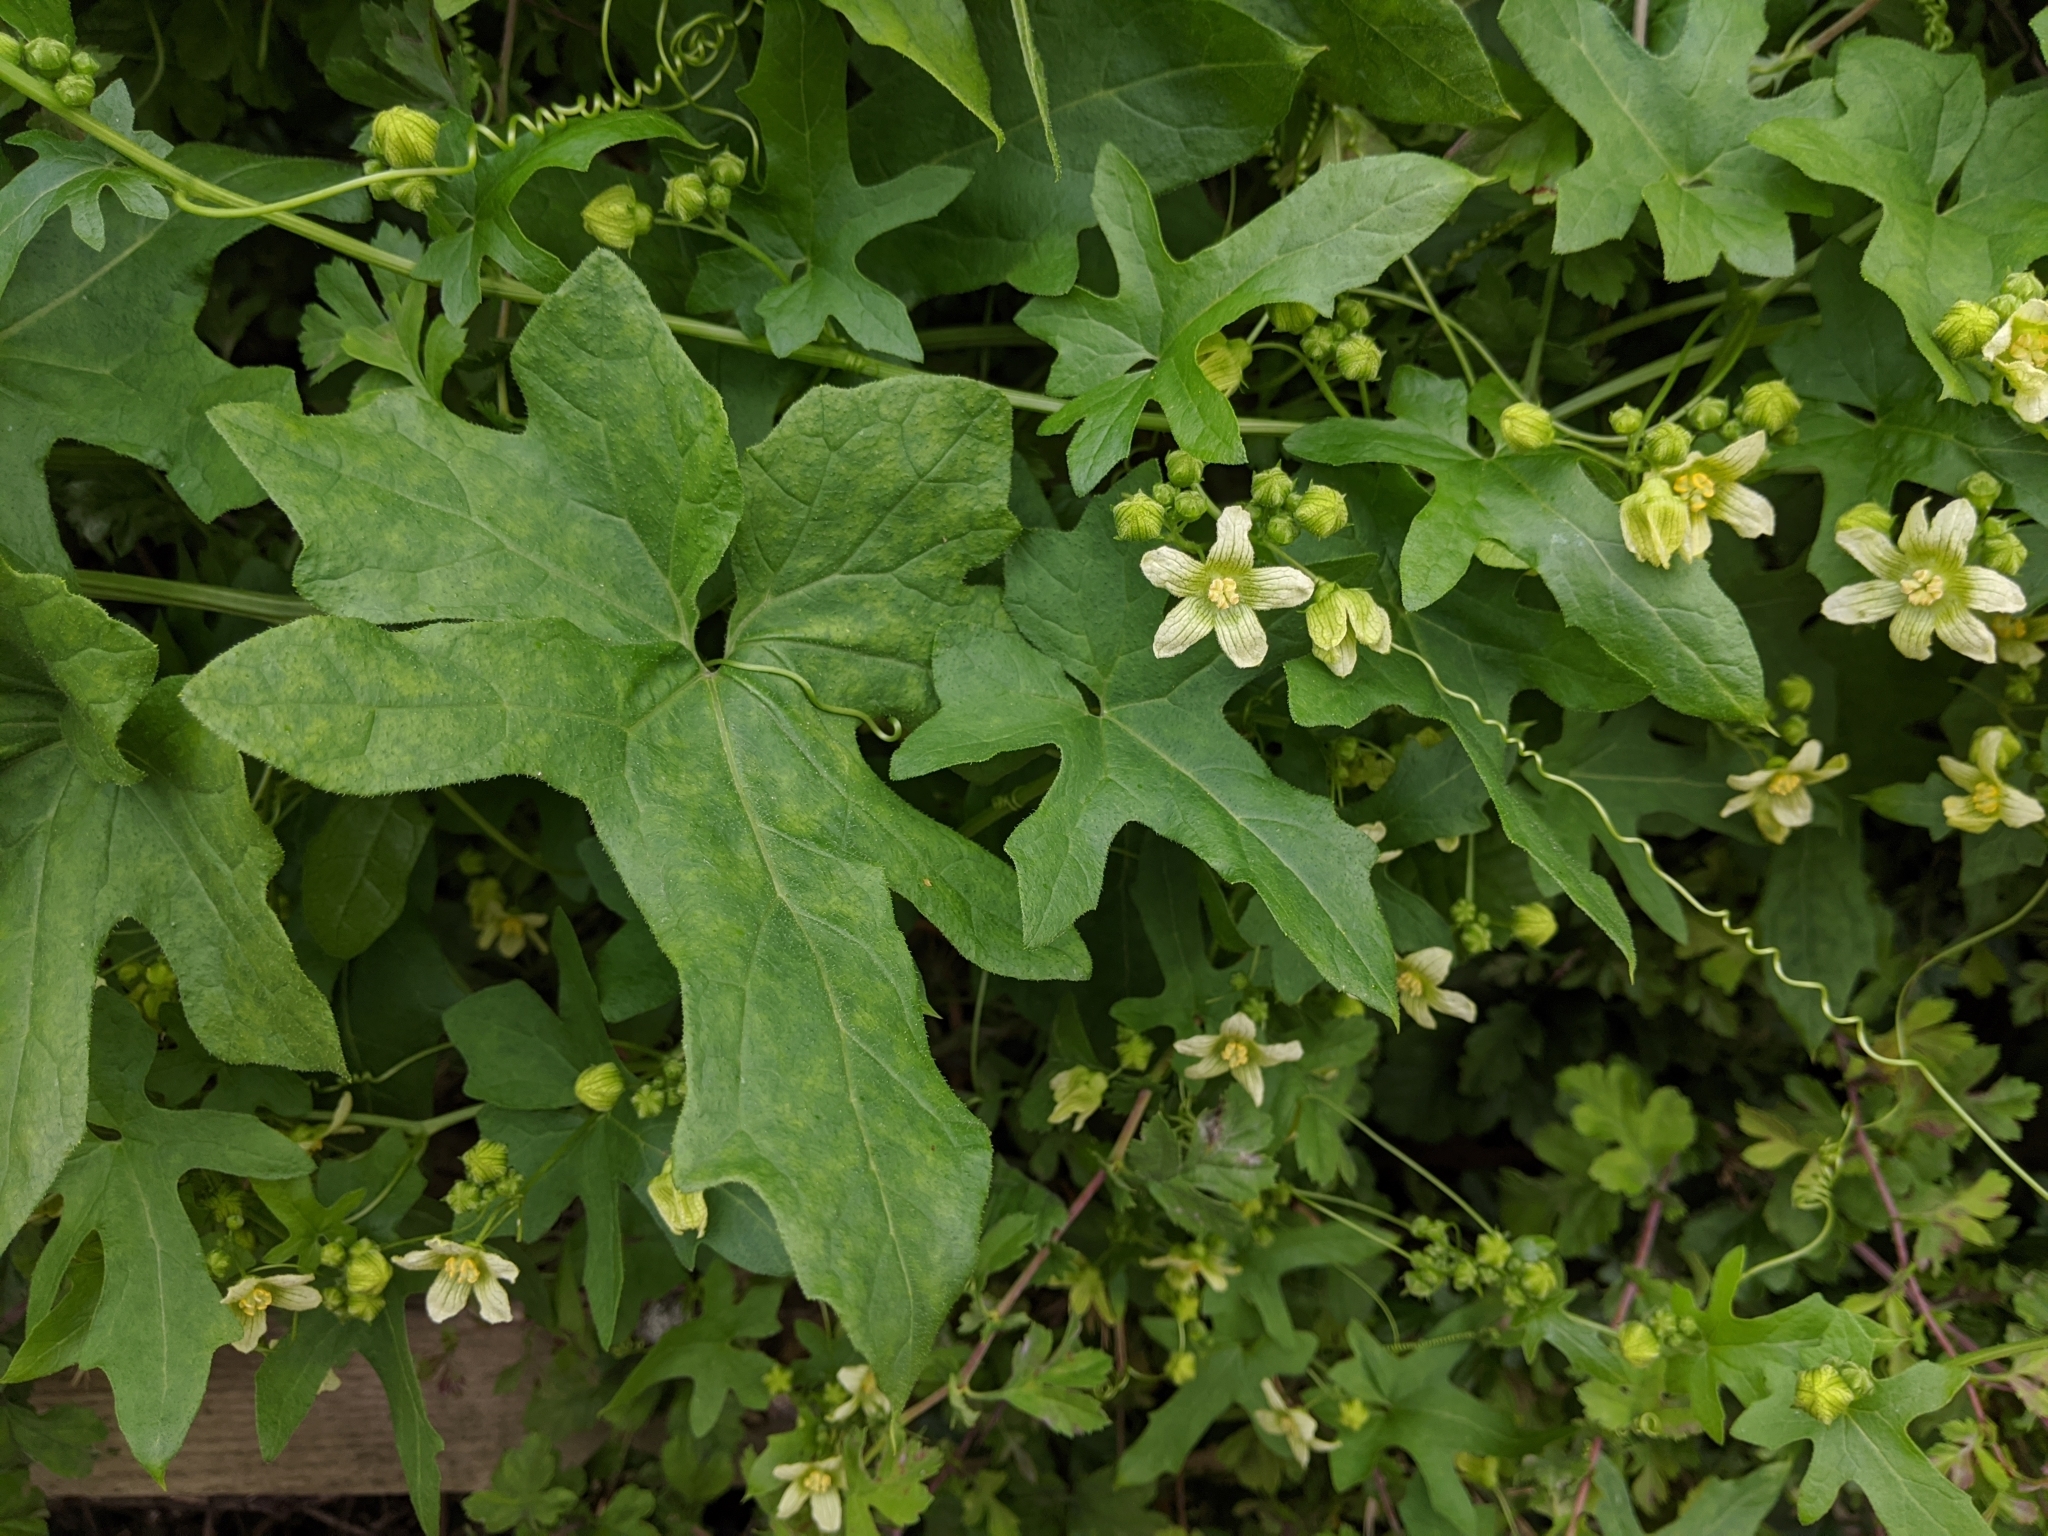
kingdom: Plantae
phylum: Tracheophyta
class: Magnoliopsida
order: Cucurbitales
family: Cucurbitaceae
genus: Bryonia
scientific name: Bryonia cretica
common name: Cretan bryony
